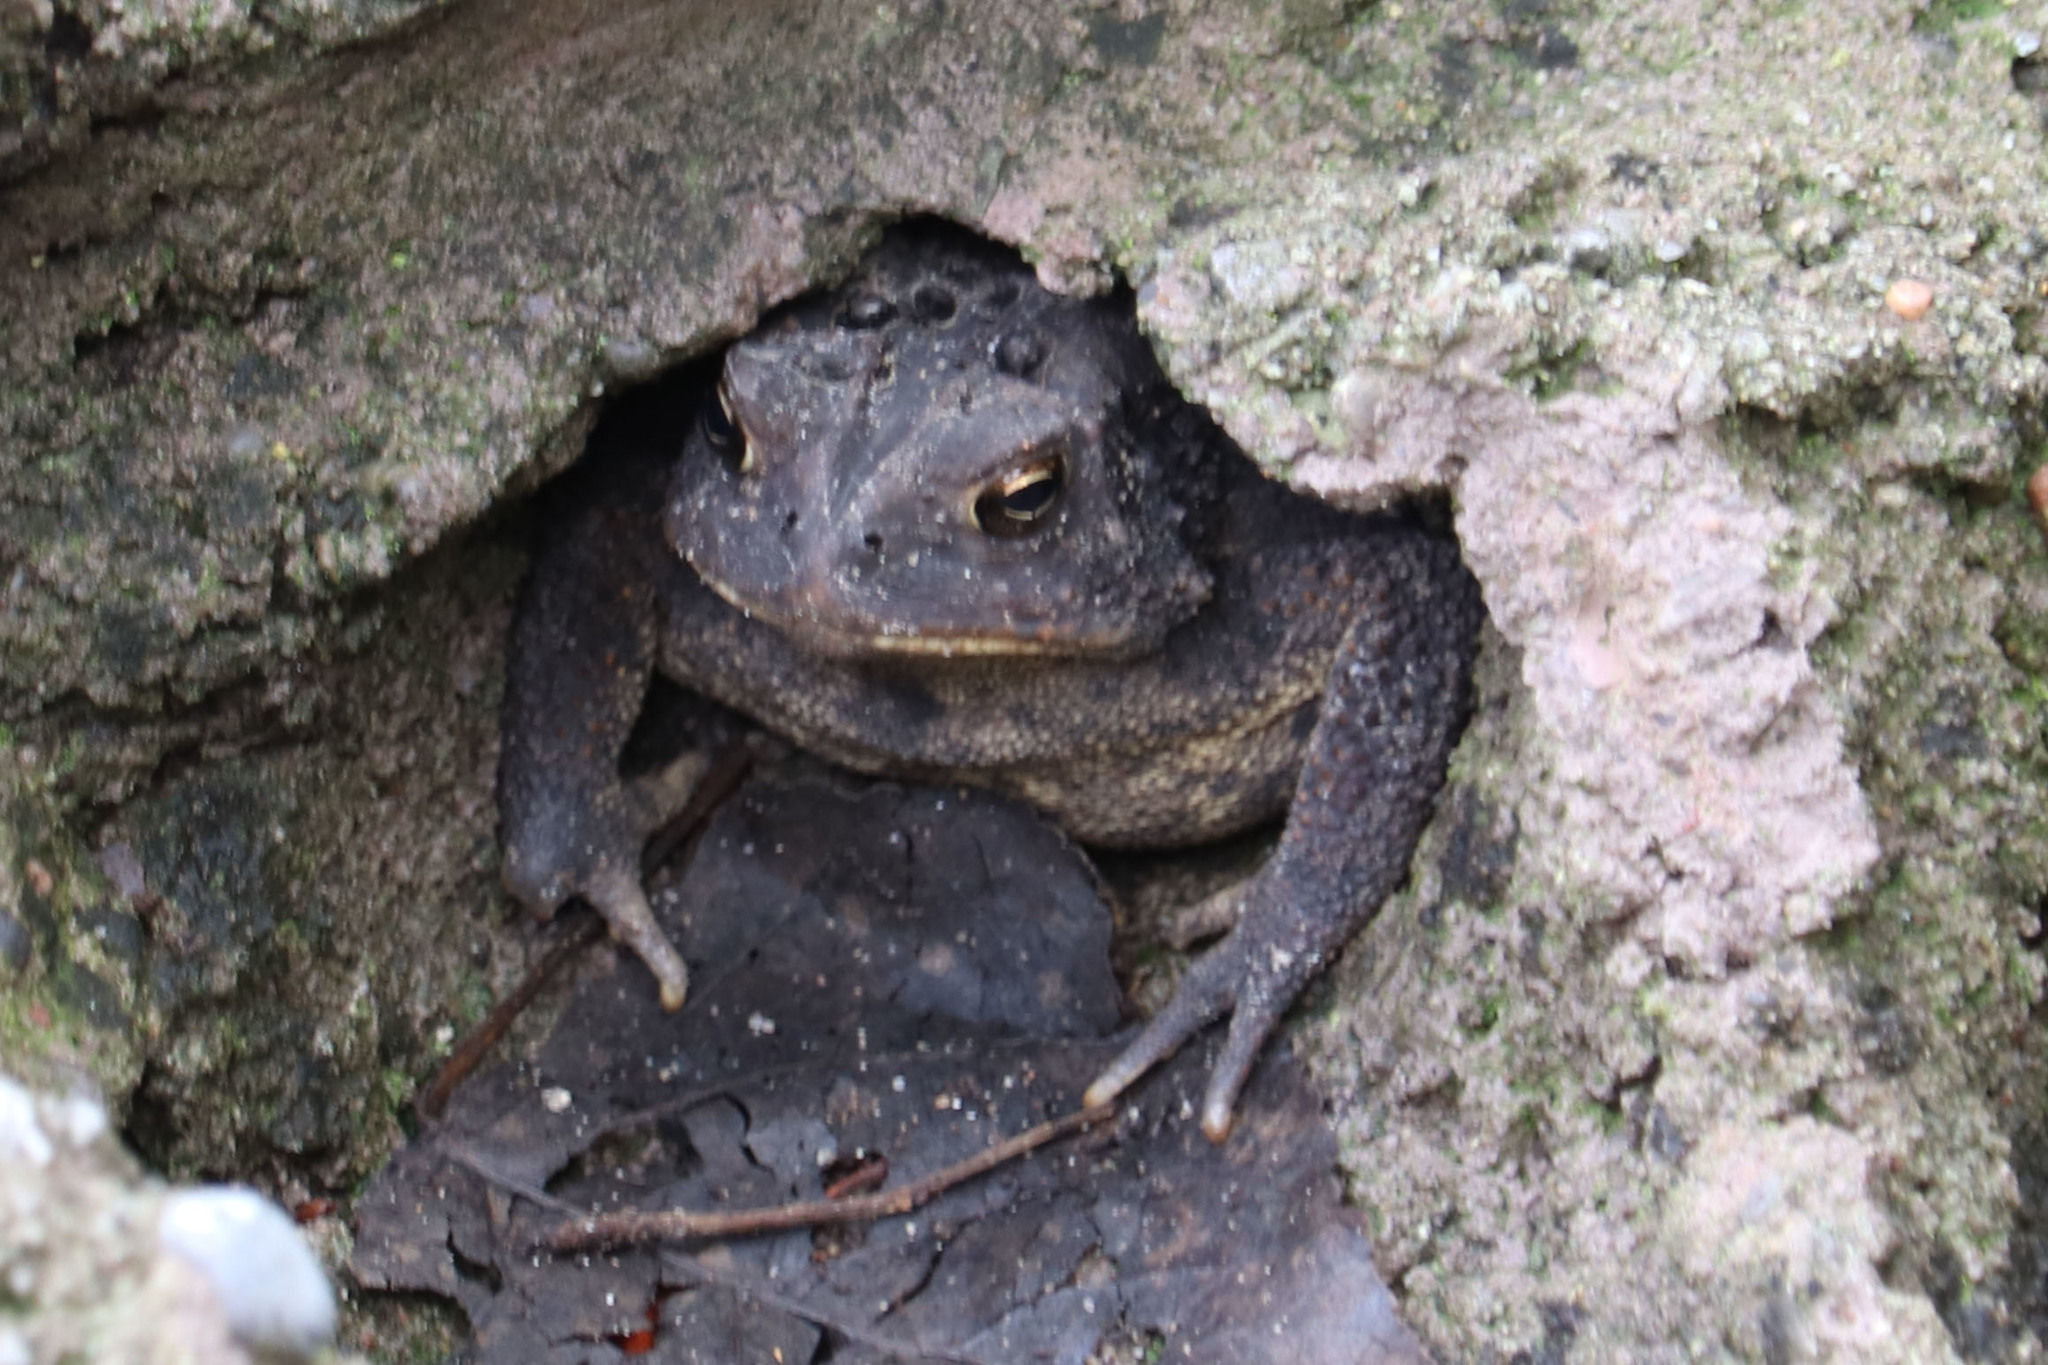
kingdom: Animalia
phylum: Chordata
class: Amphibia
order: Anura
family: Bufonidae
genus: Anaxyrus
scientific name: Anaxyrus americanus
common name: American toad
